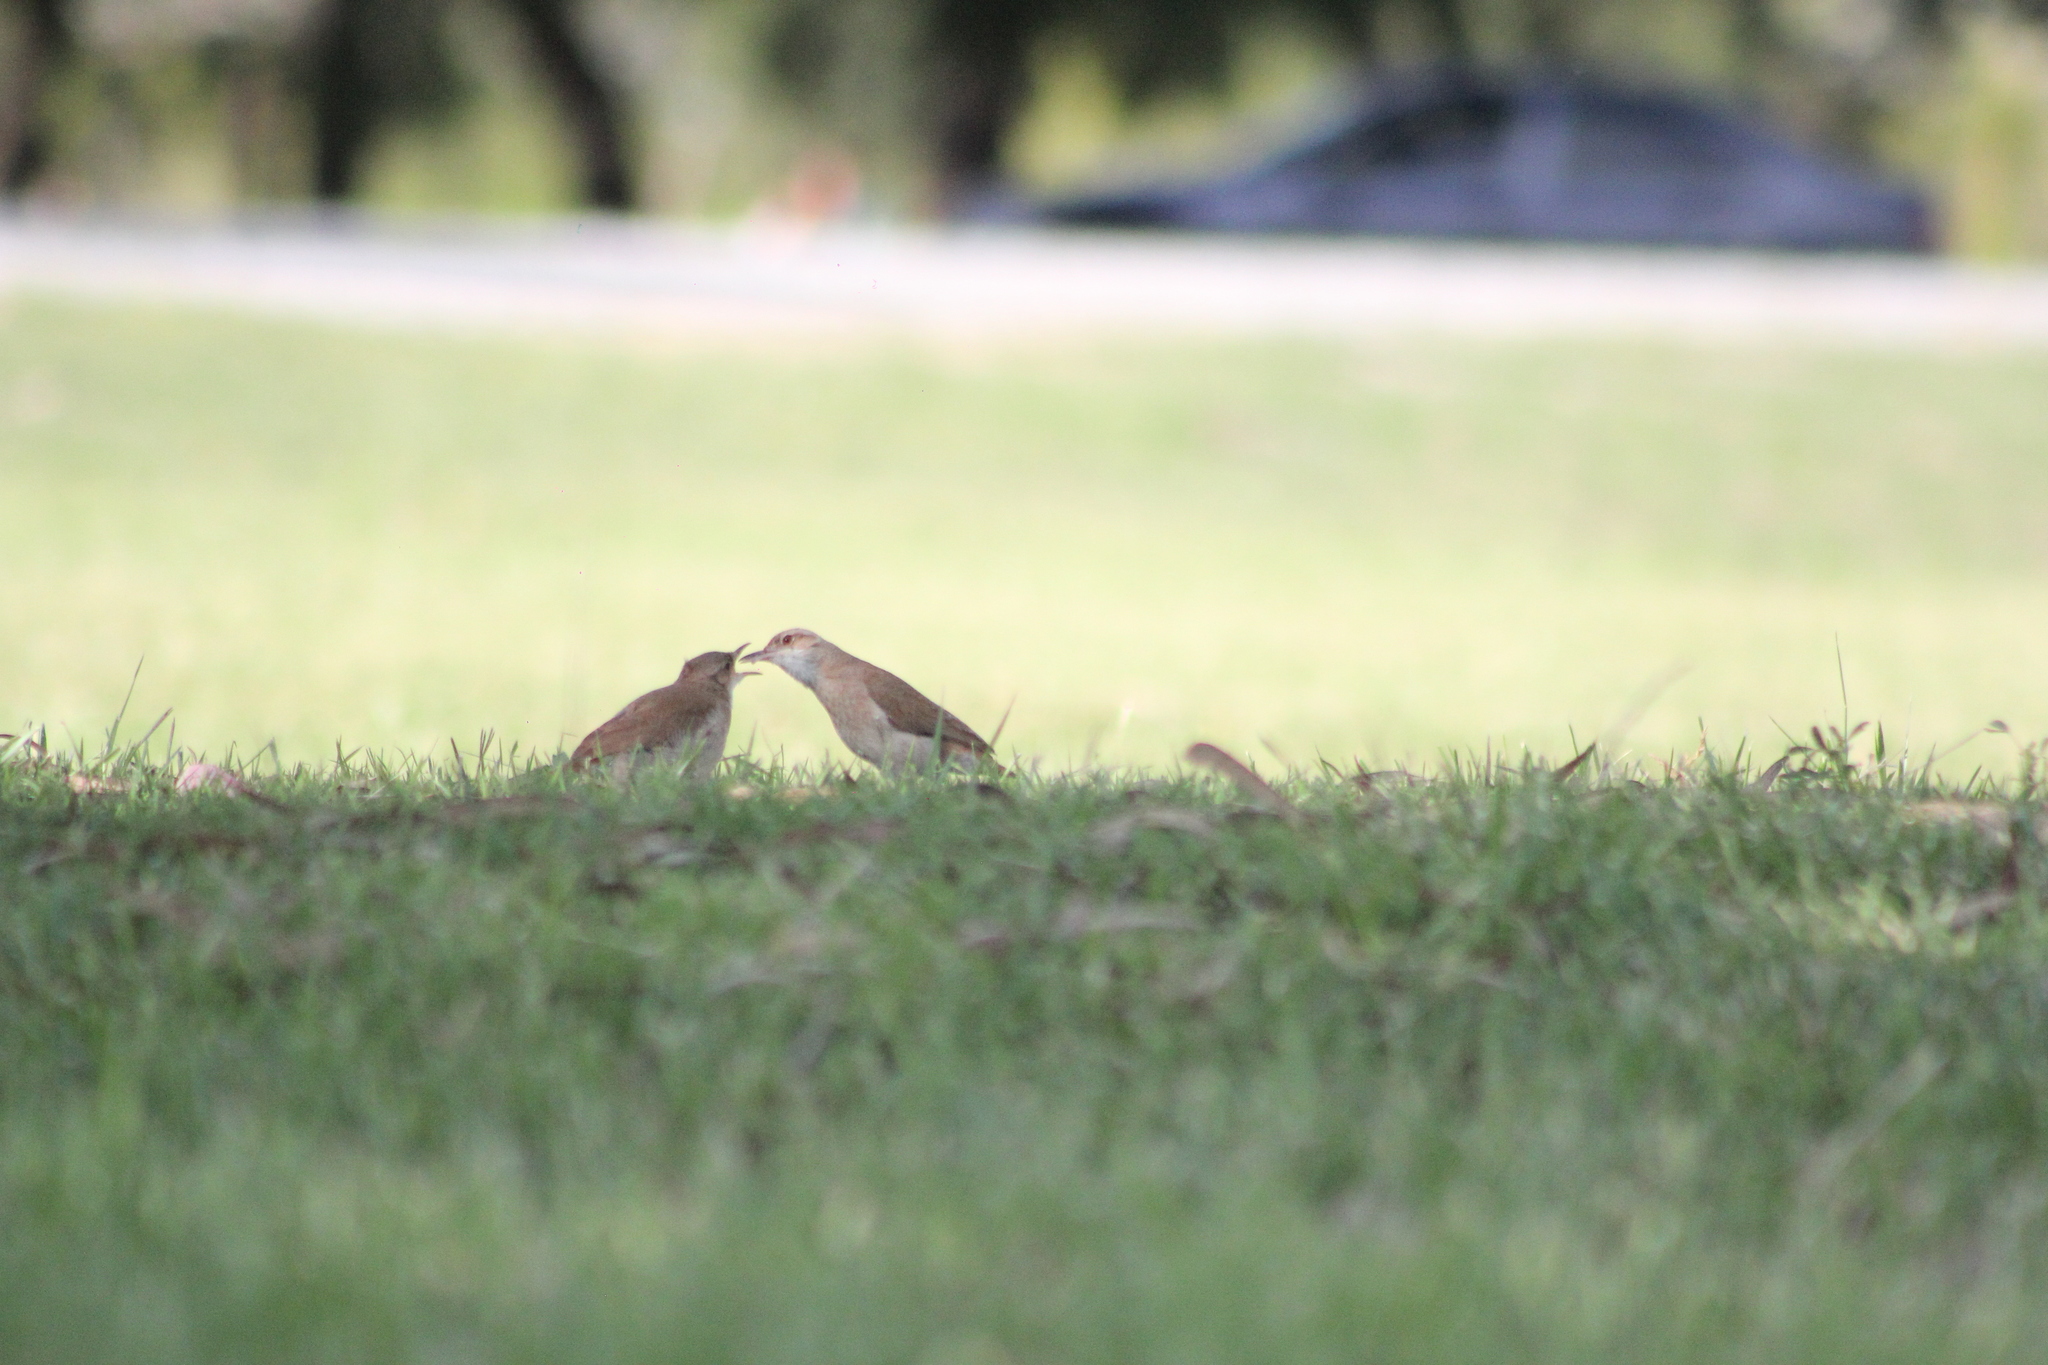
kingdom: Animalia
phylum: Chordata
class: Aves
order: Passeriformes
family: Furnariidae
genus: Furnarius
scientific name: Furnarius rufus
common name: Rufous hornero
